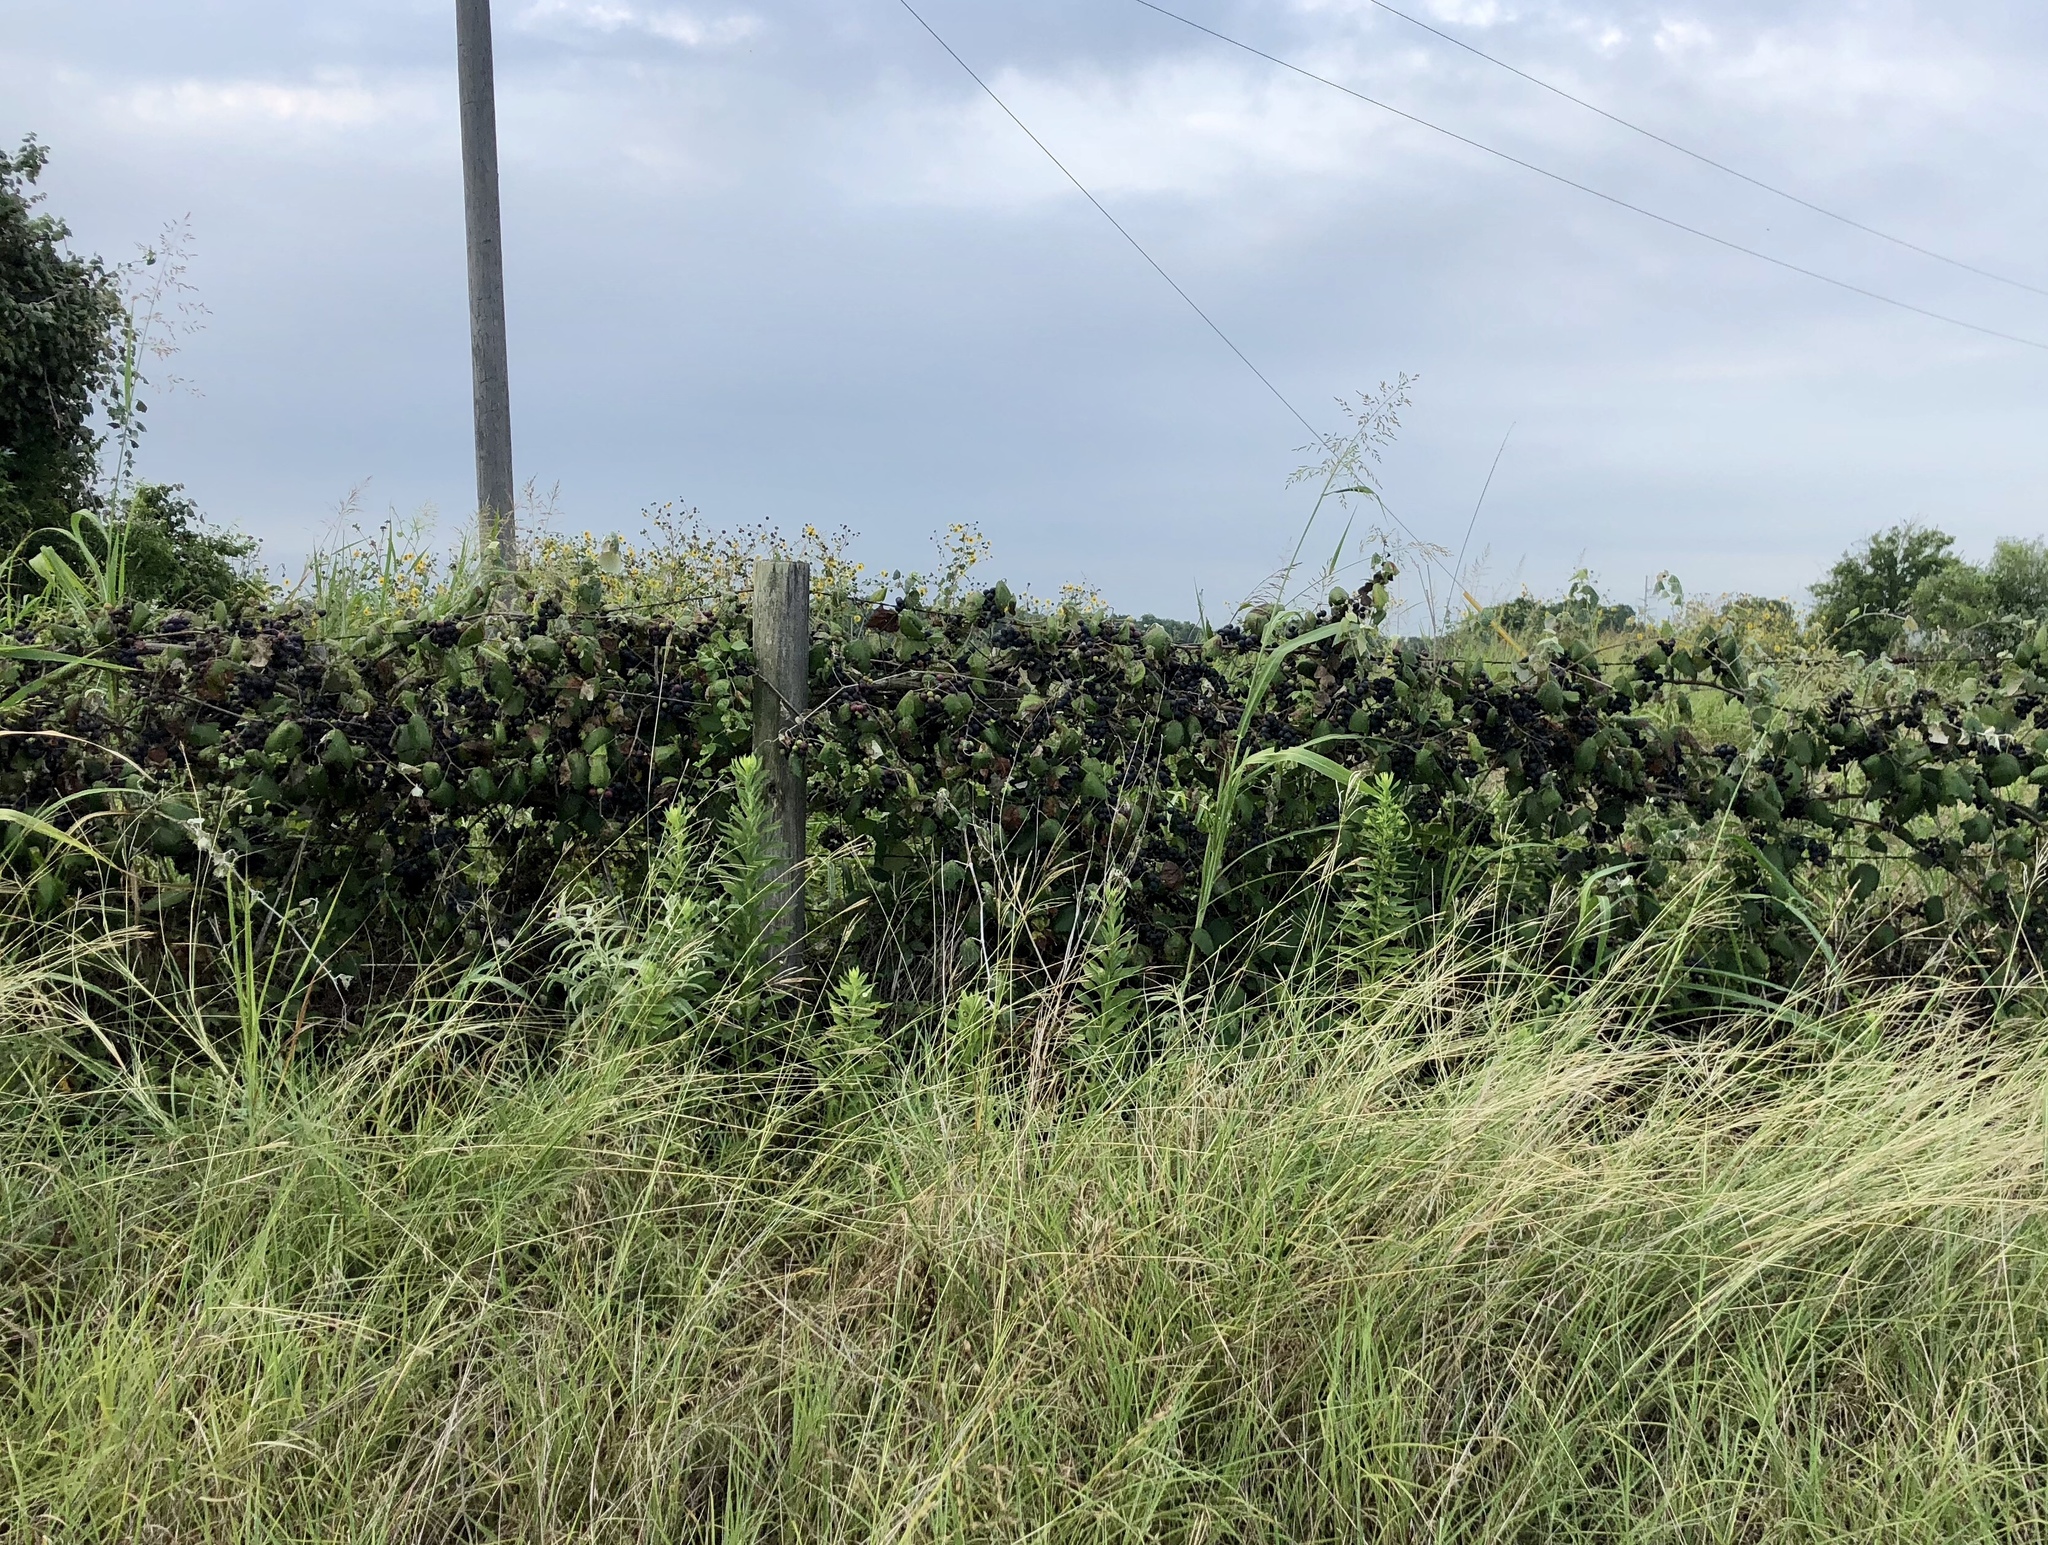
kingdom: Plantae
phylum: Tracheophyta
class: Magnoliopsida
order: Vitales
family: Vitaceae
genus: Vitis
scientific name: Vitis mustangensis
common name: Mustang grape
